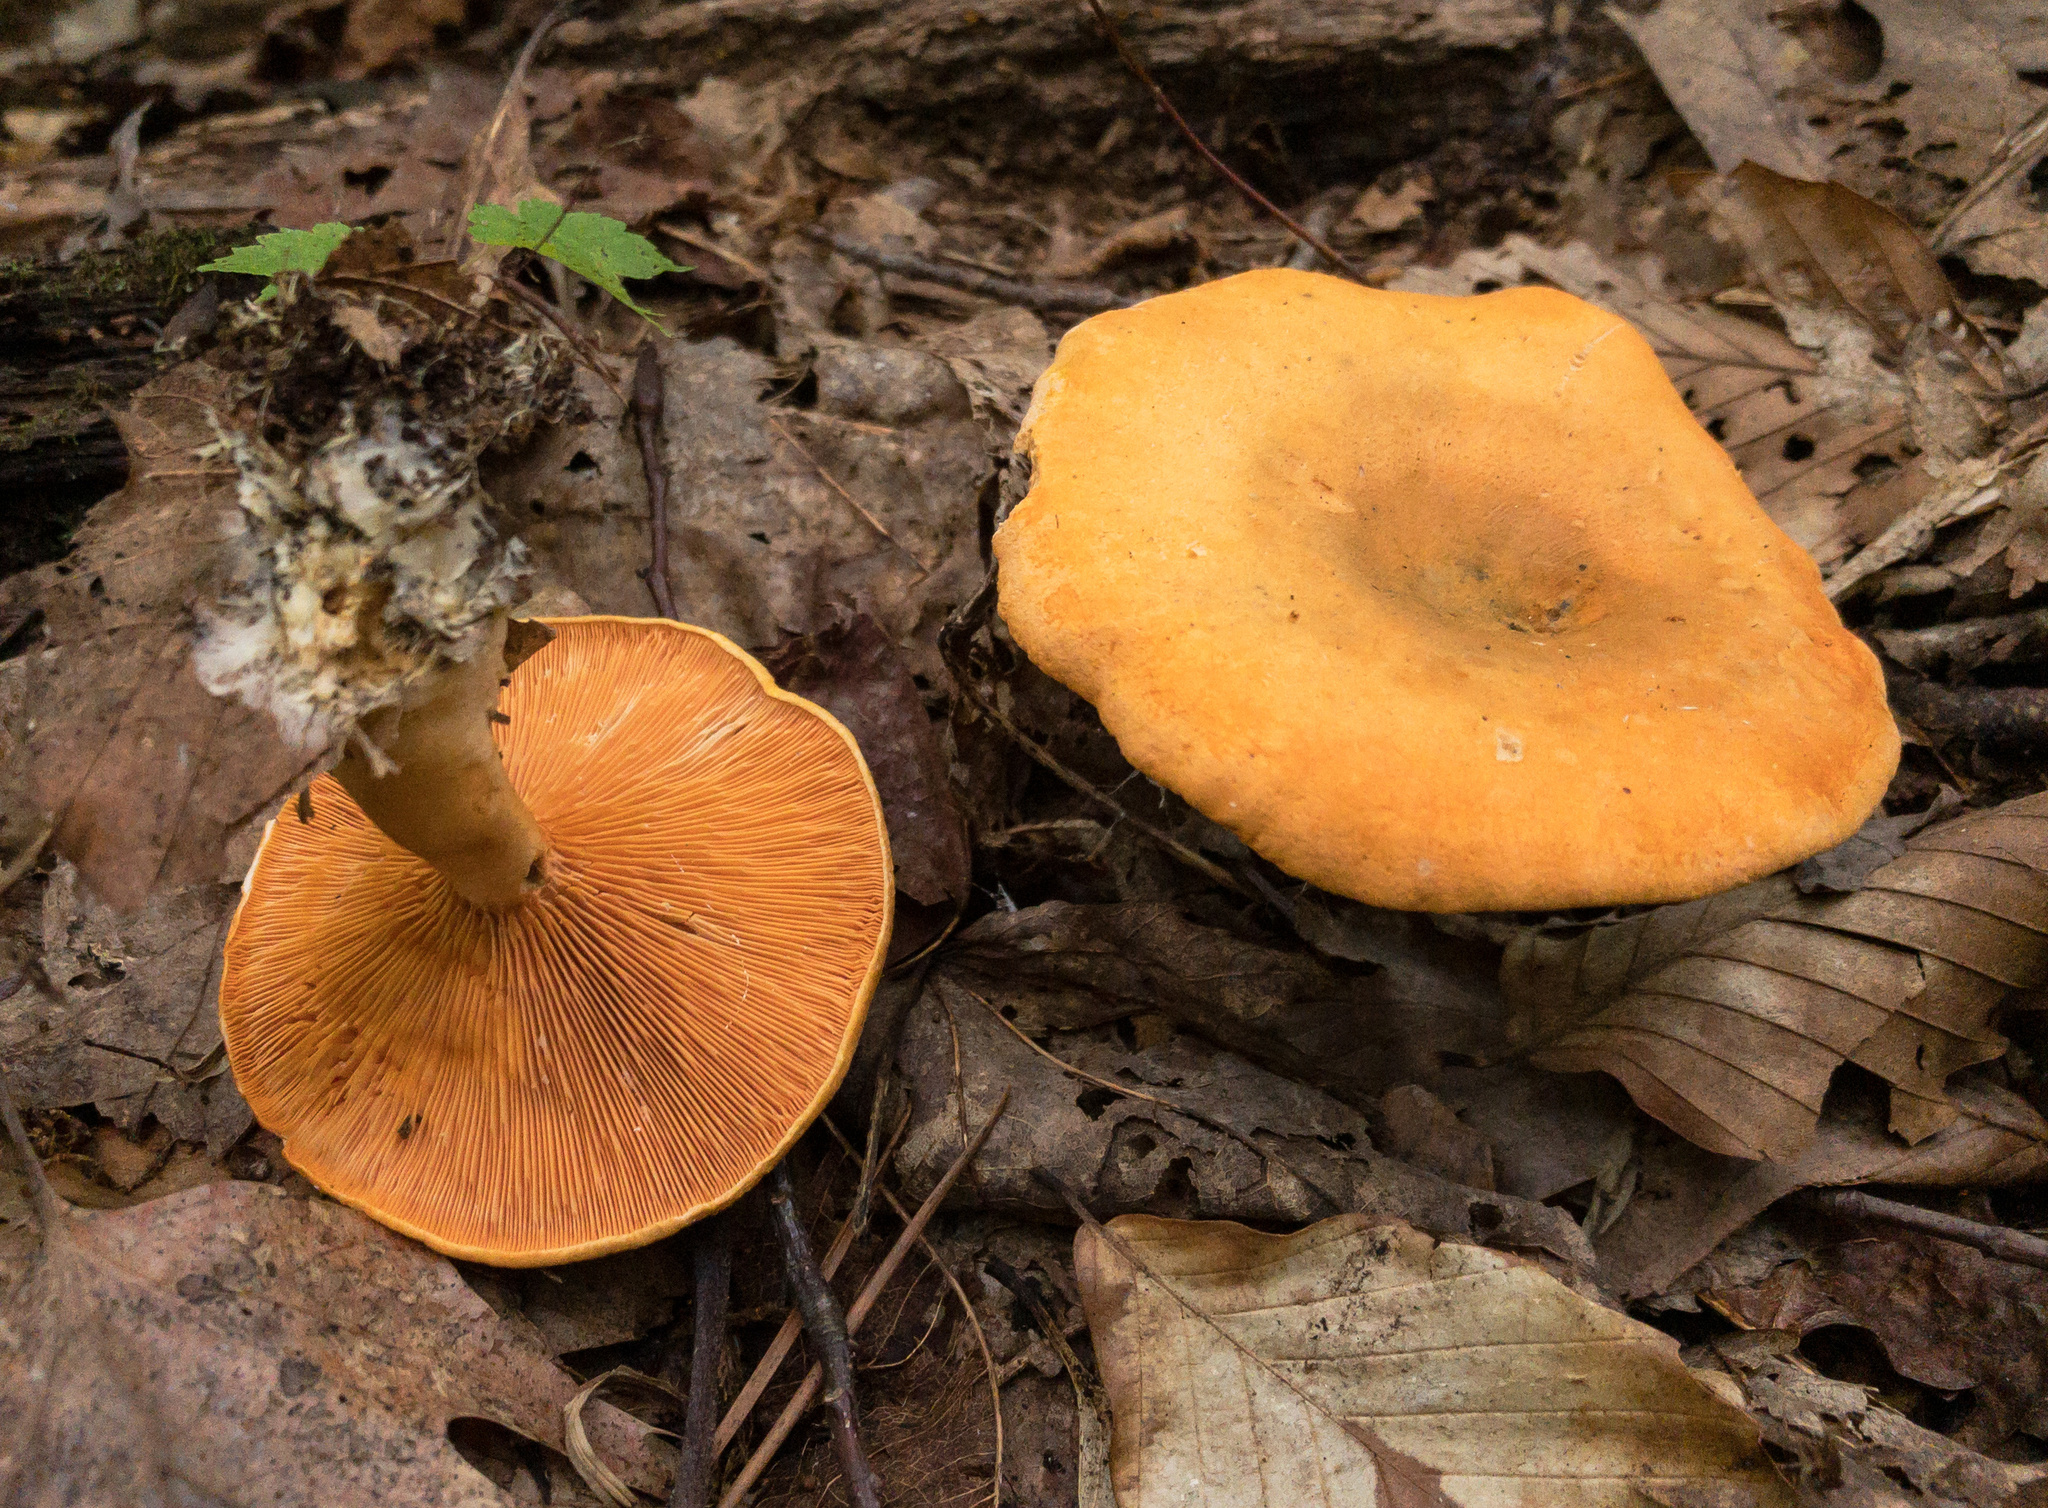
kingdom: Fungi
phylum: Basidiomycota
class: Agaricomycetes
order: Boletales
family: Hygrophoropsidaceae
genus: Hygrophoropsis
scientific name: Hygrophoropsis aurantiaca
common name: False chanterelle
